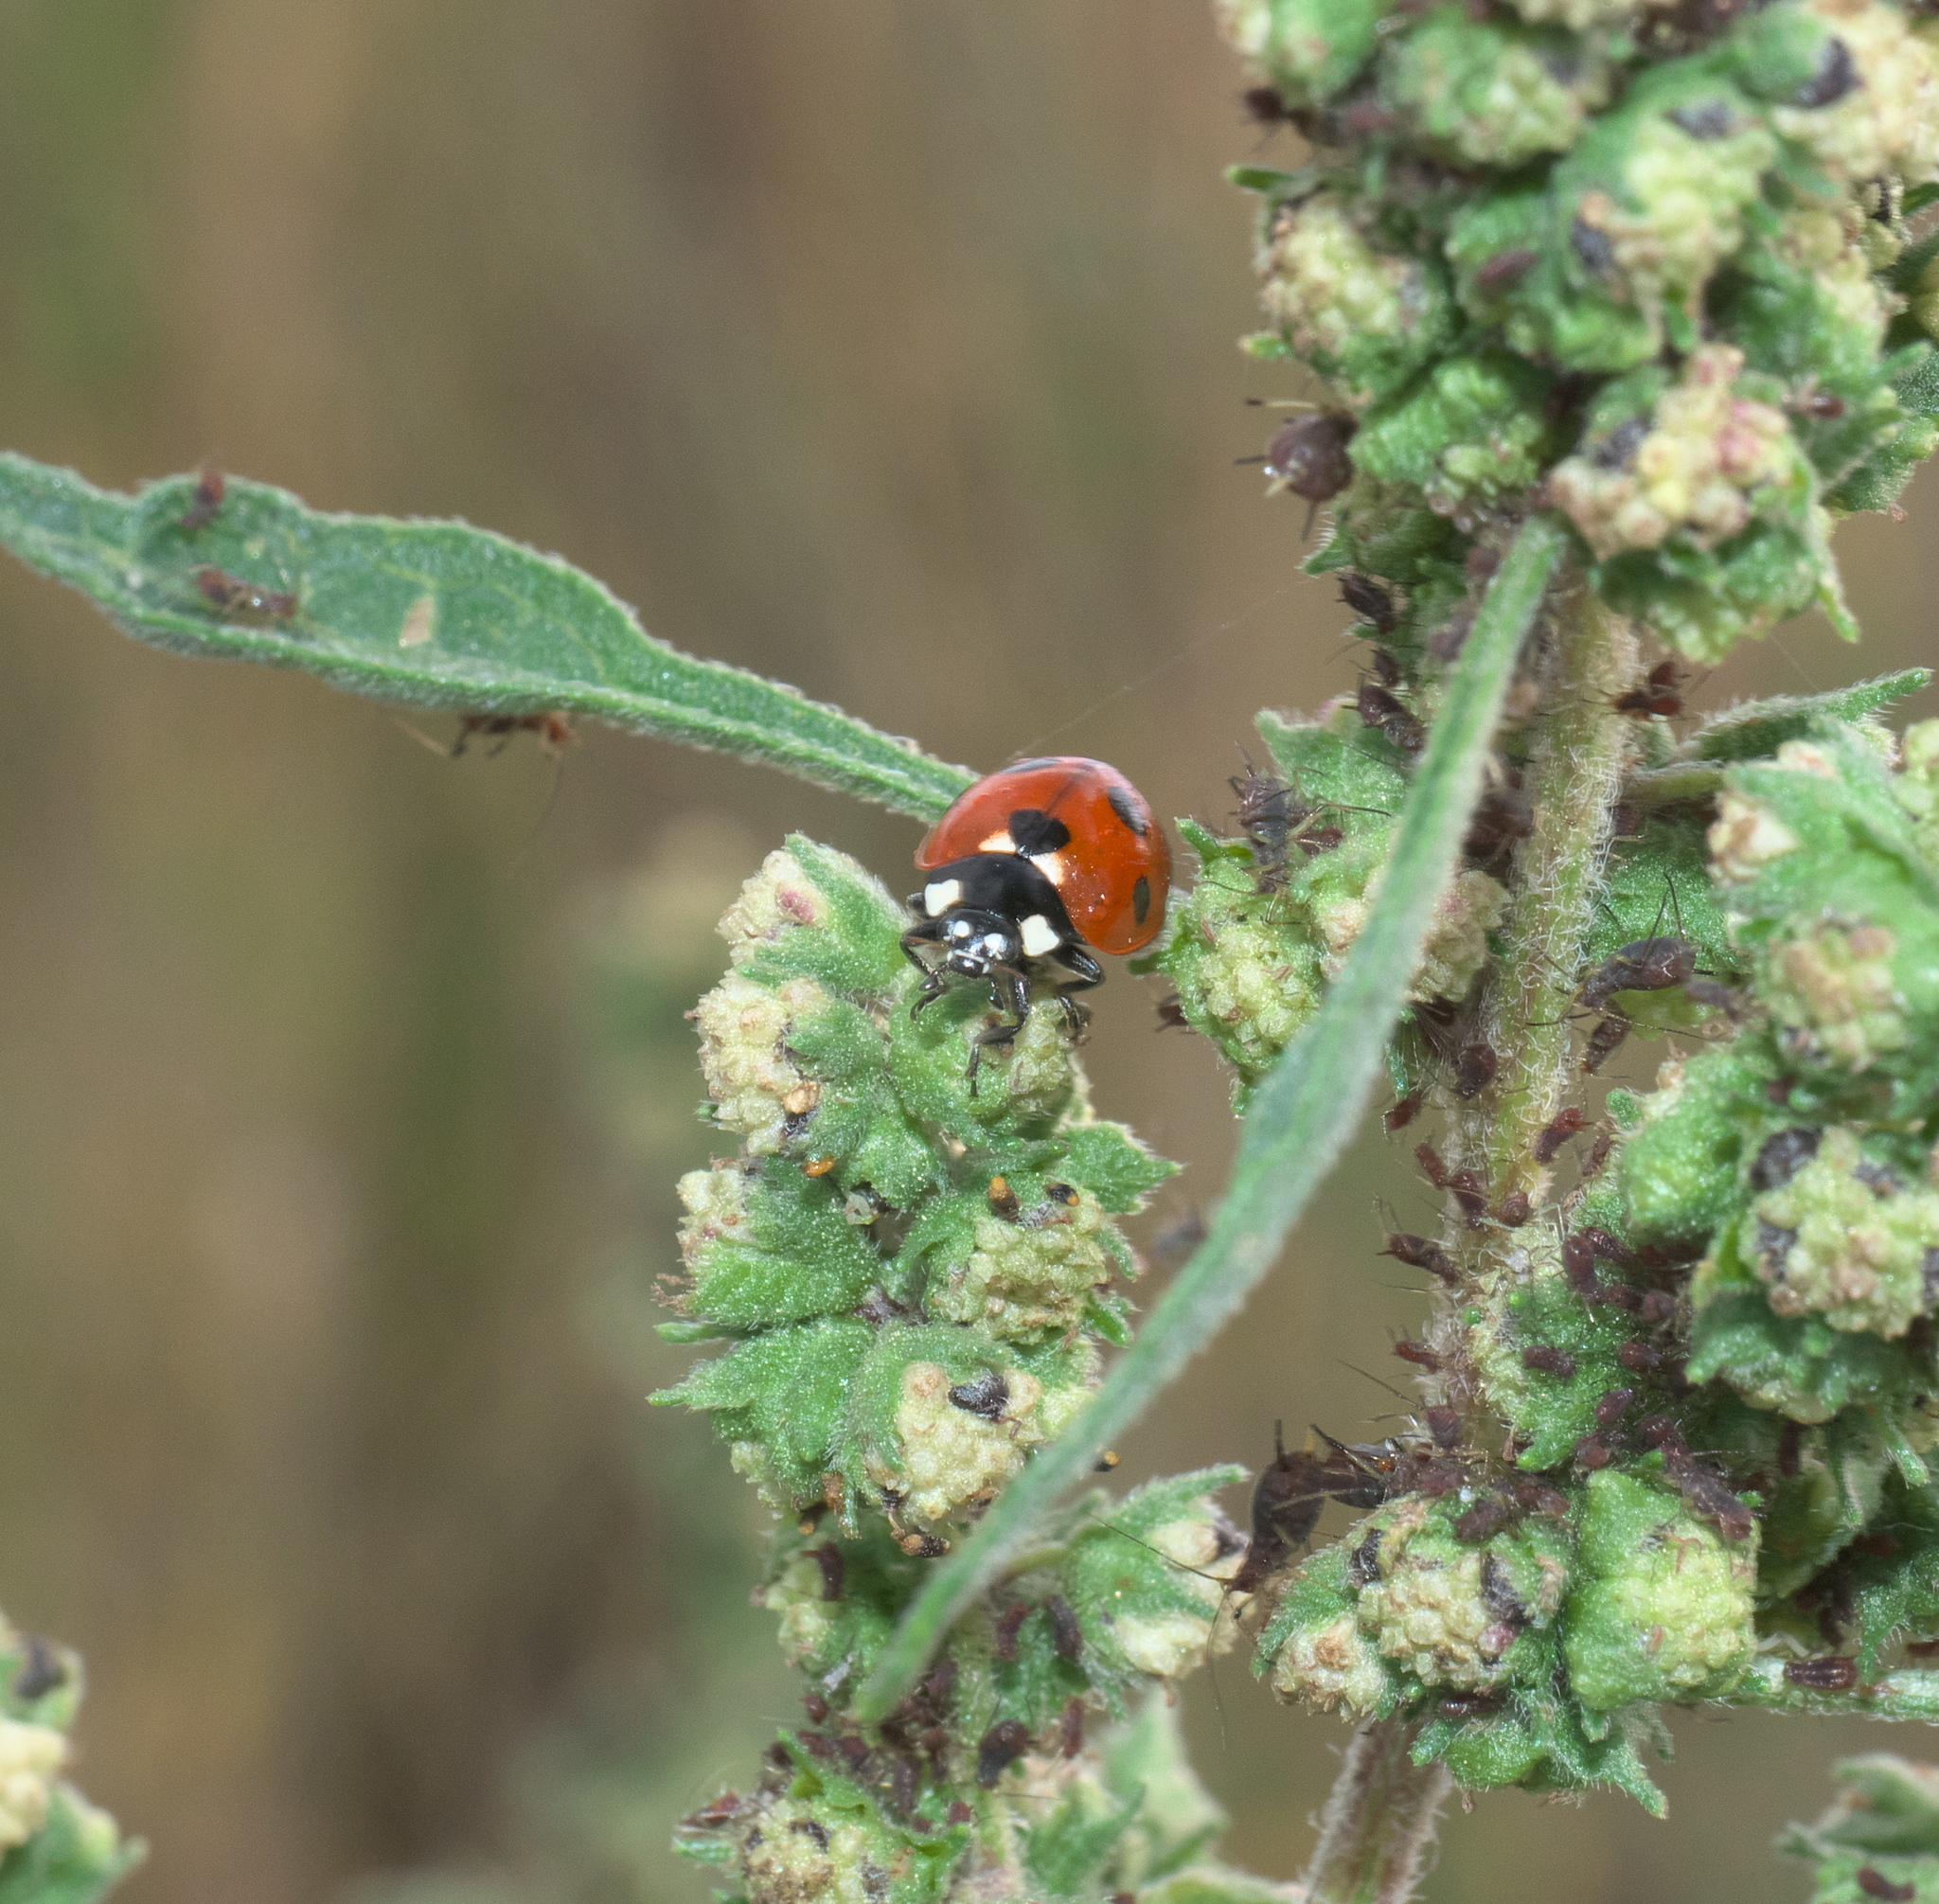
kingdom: Animalia
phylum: Arthropoda
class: Insecta
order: Coleoptera
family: Coccinellidae
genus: Coccinella
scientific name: Coccinella septempunctata
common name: Sevenspotted lady beetle
